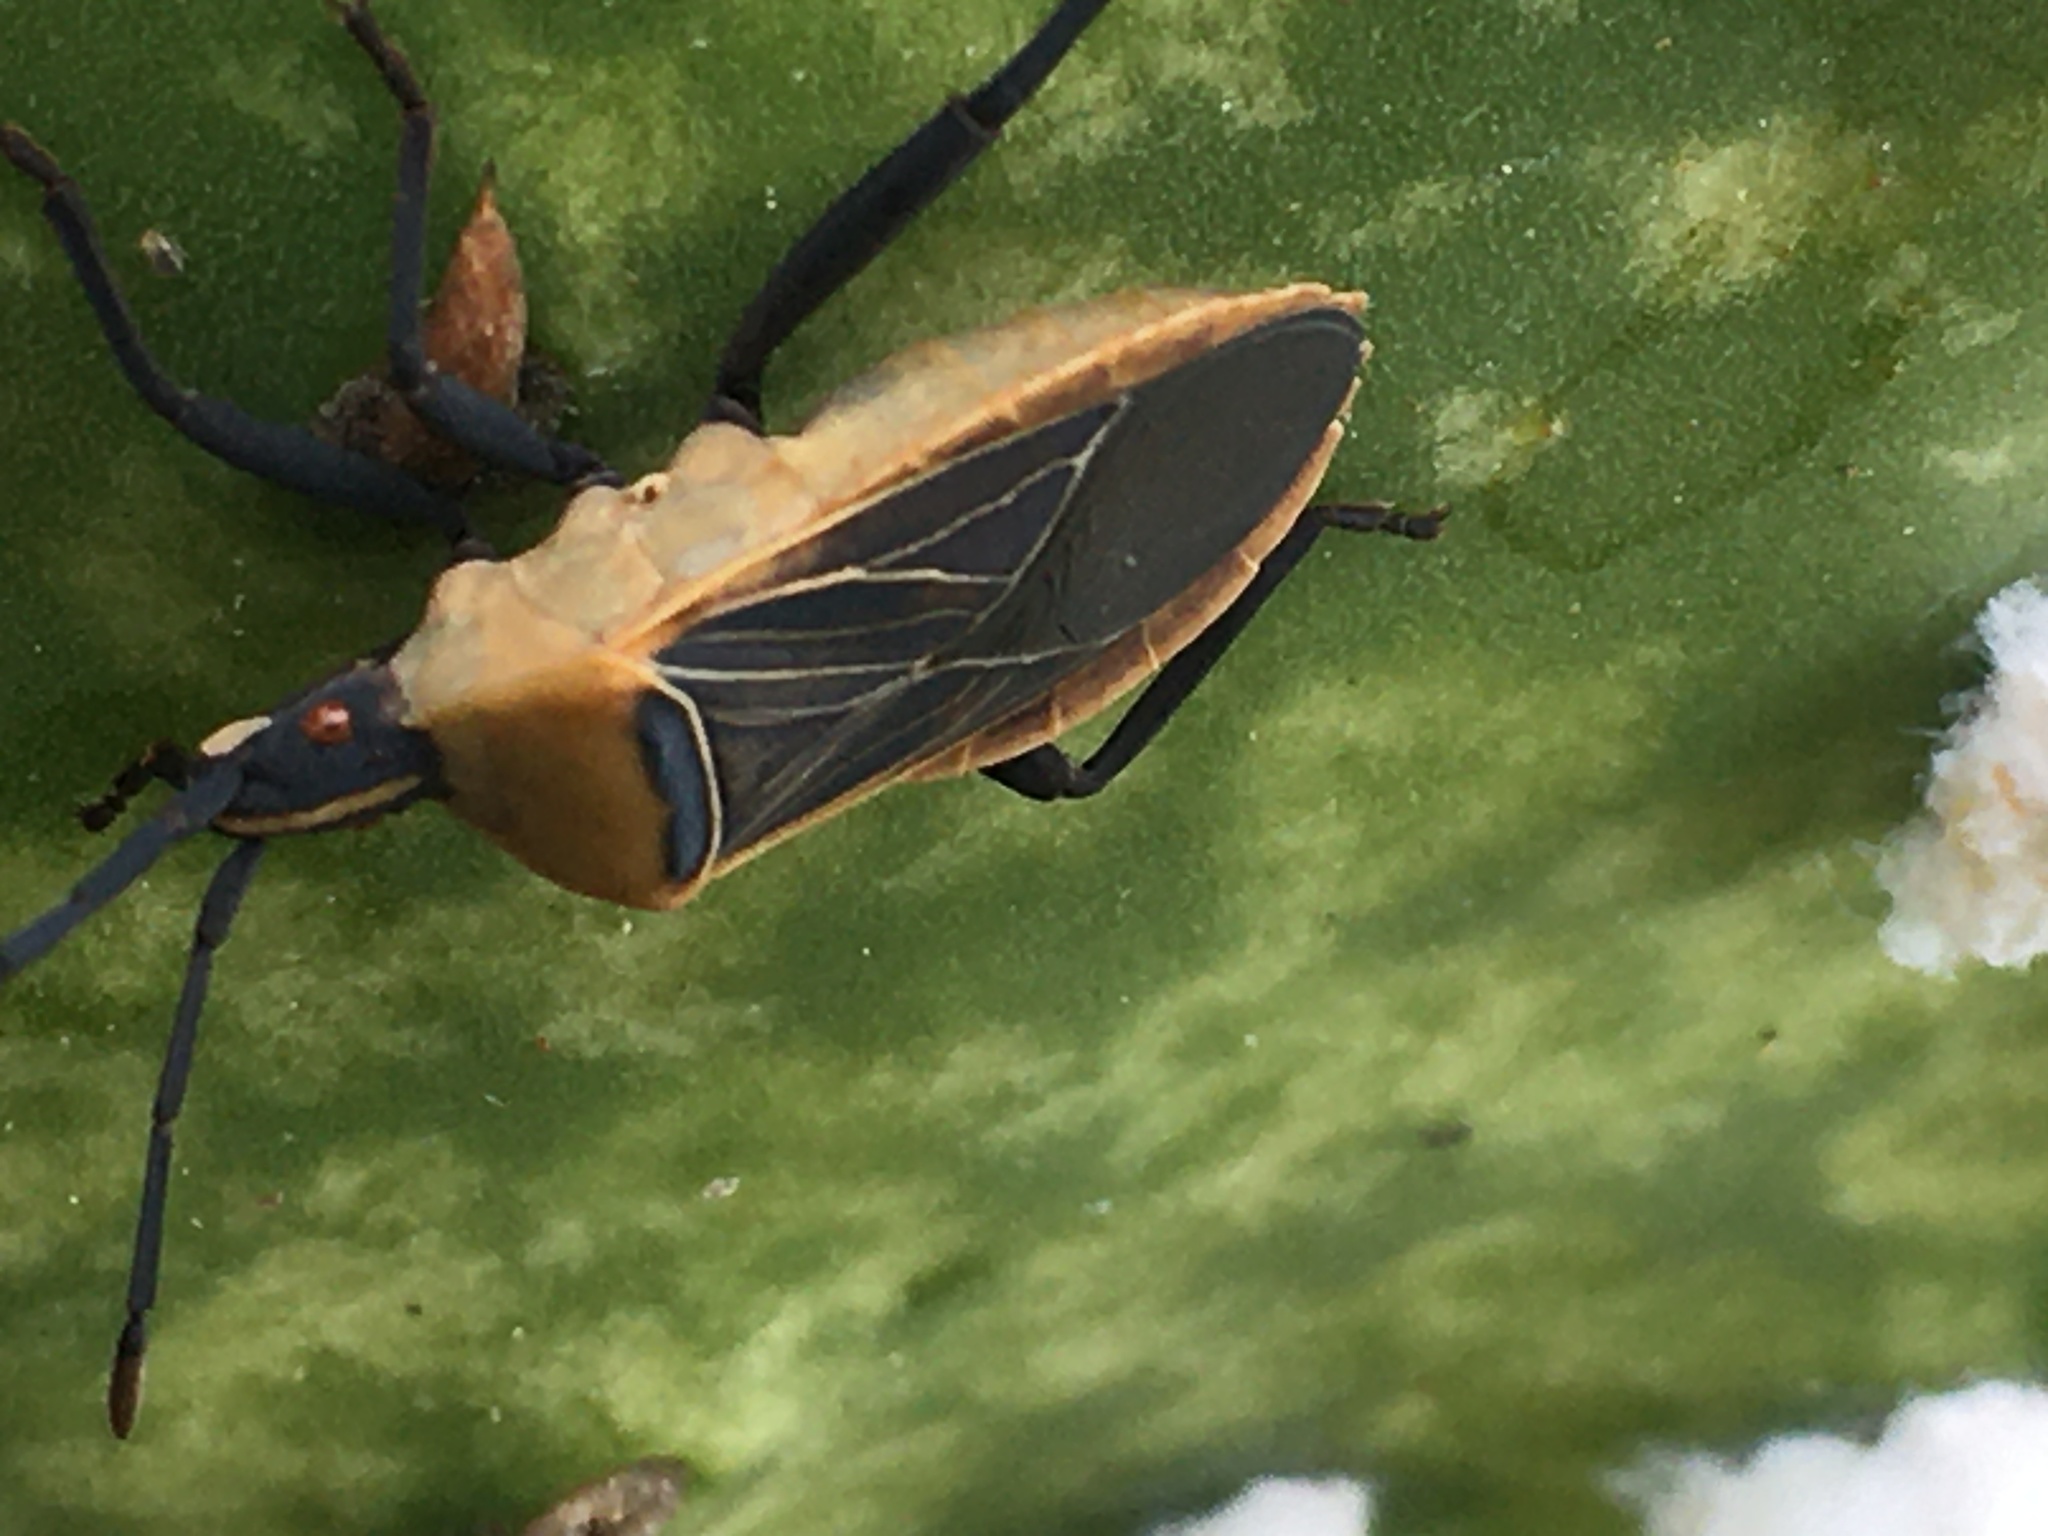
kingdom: Animalia
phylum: Arthropoda
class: Insecta
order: Hemiptera
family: Coreidae
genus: Chelinidea
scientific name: Chelinidea vittiger
